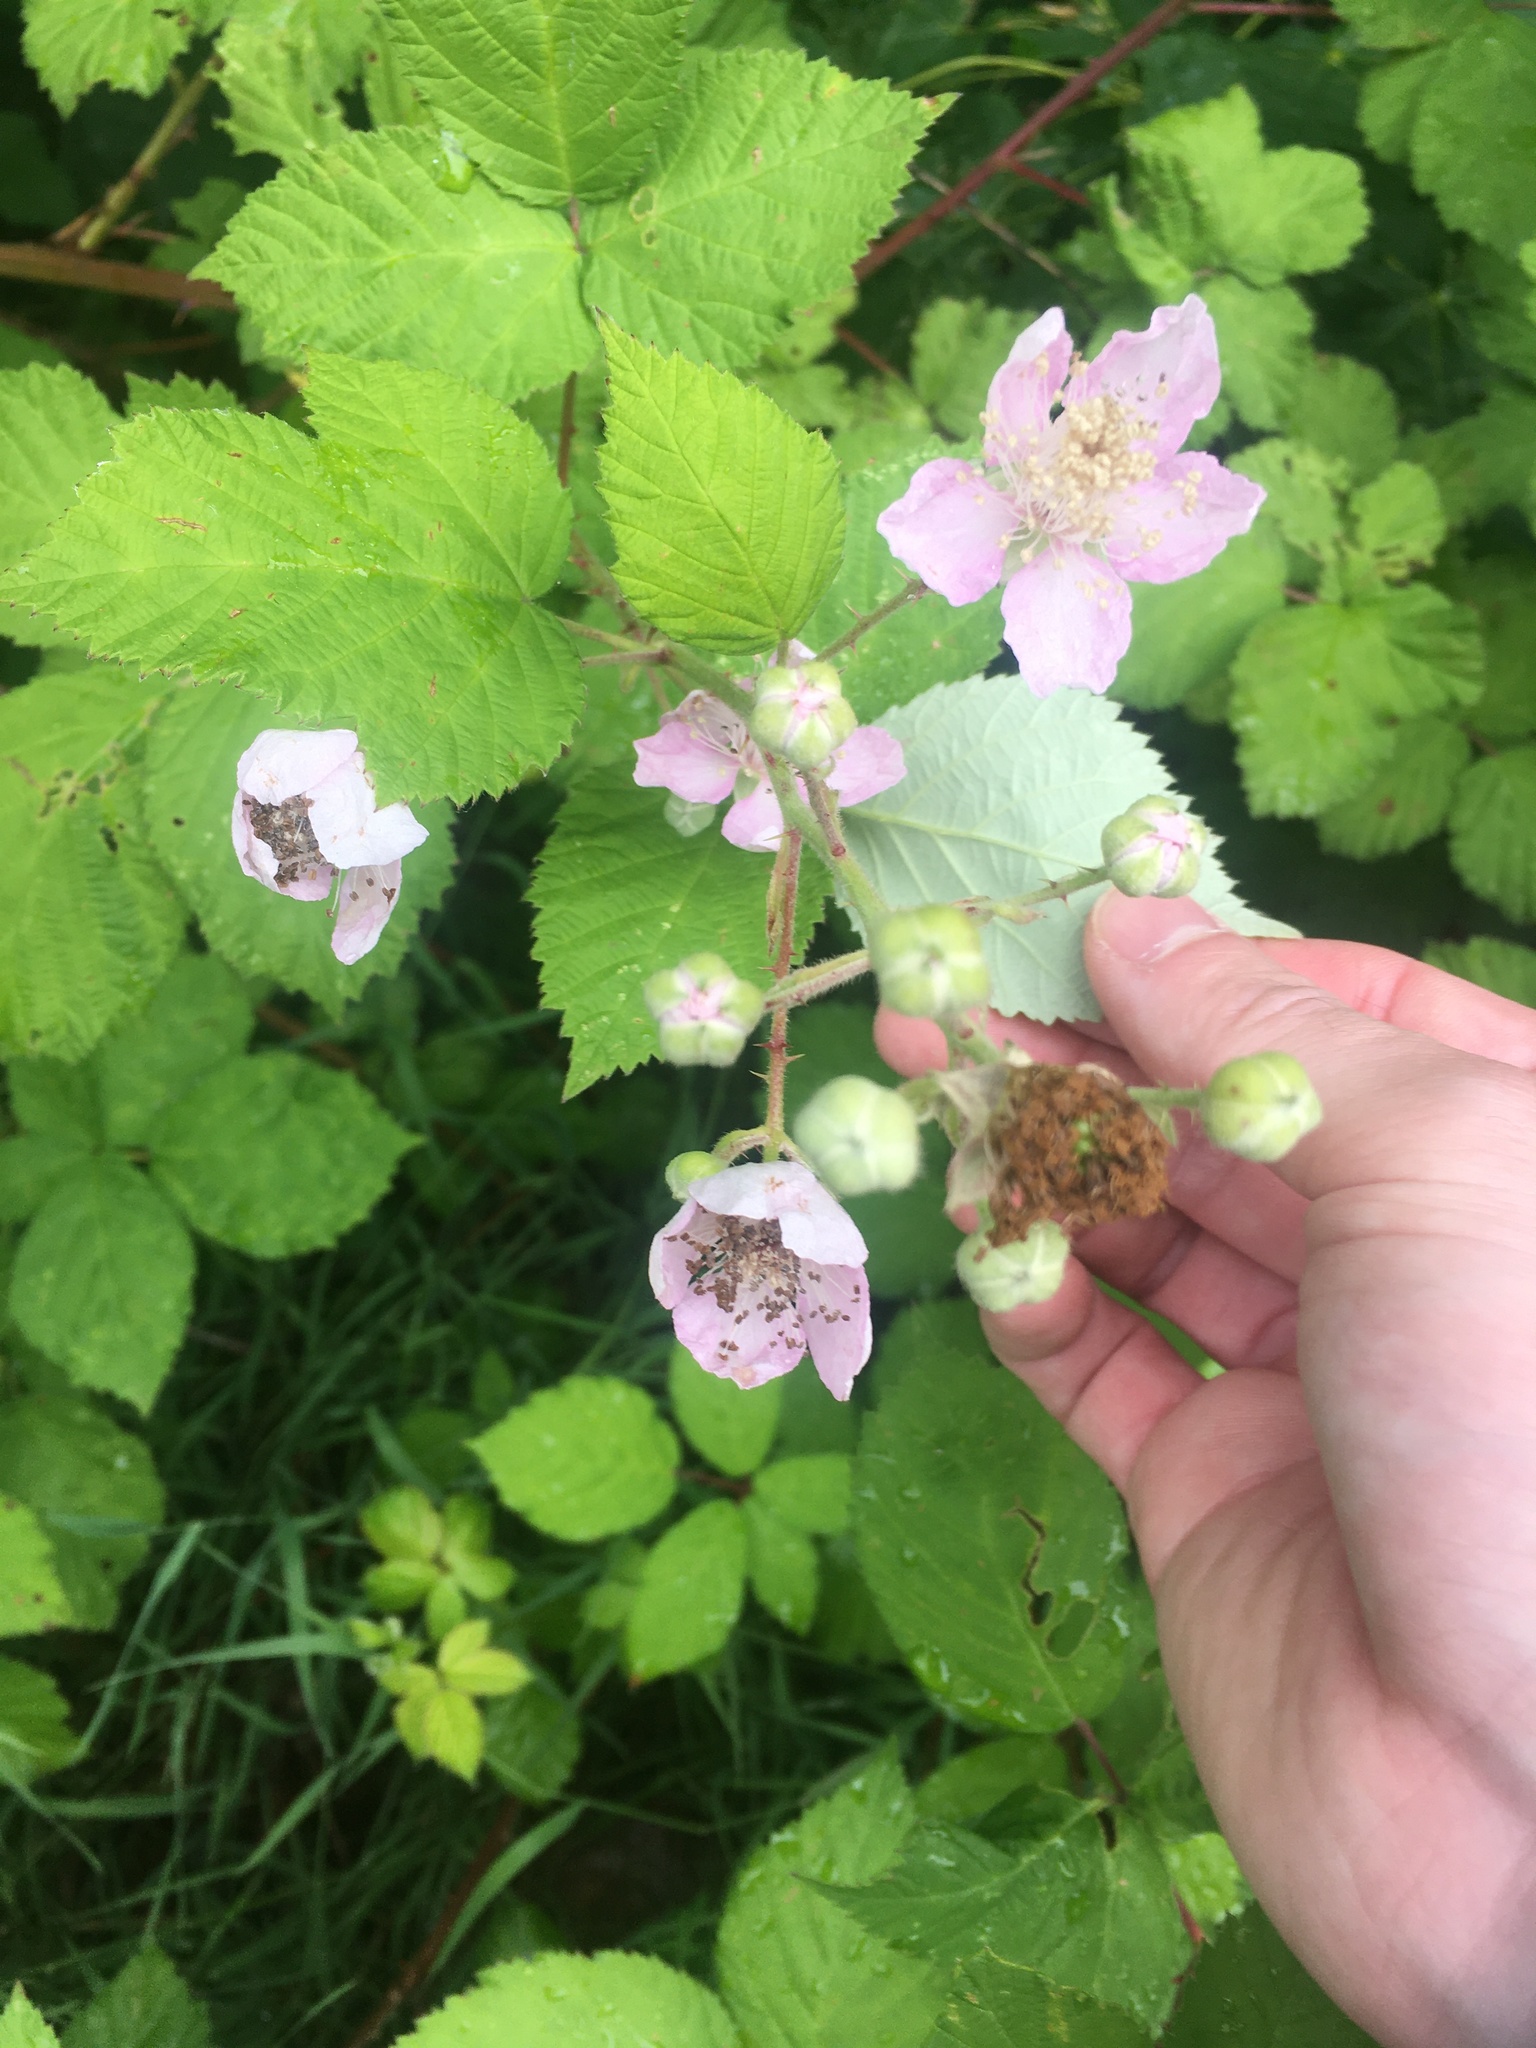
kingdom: Plantae
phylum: Tracheophyta
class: Magnoliopsida
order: Rosales
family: Rosaceae
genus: Rubus
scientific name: Rubus bifrons
